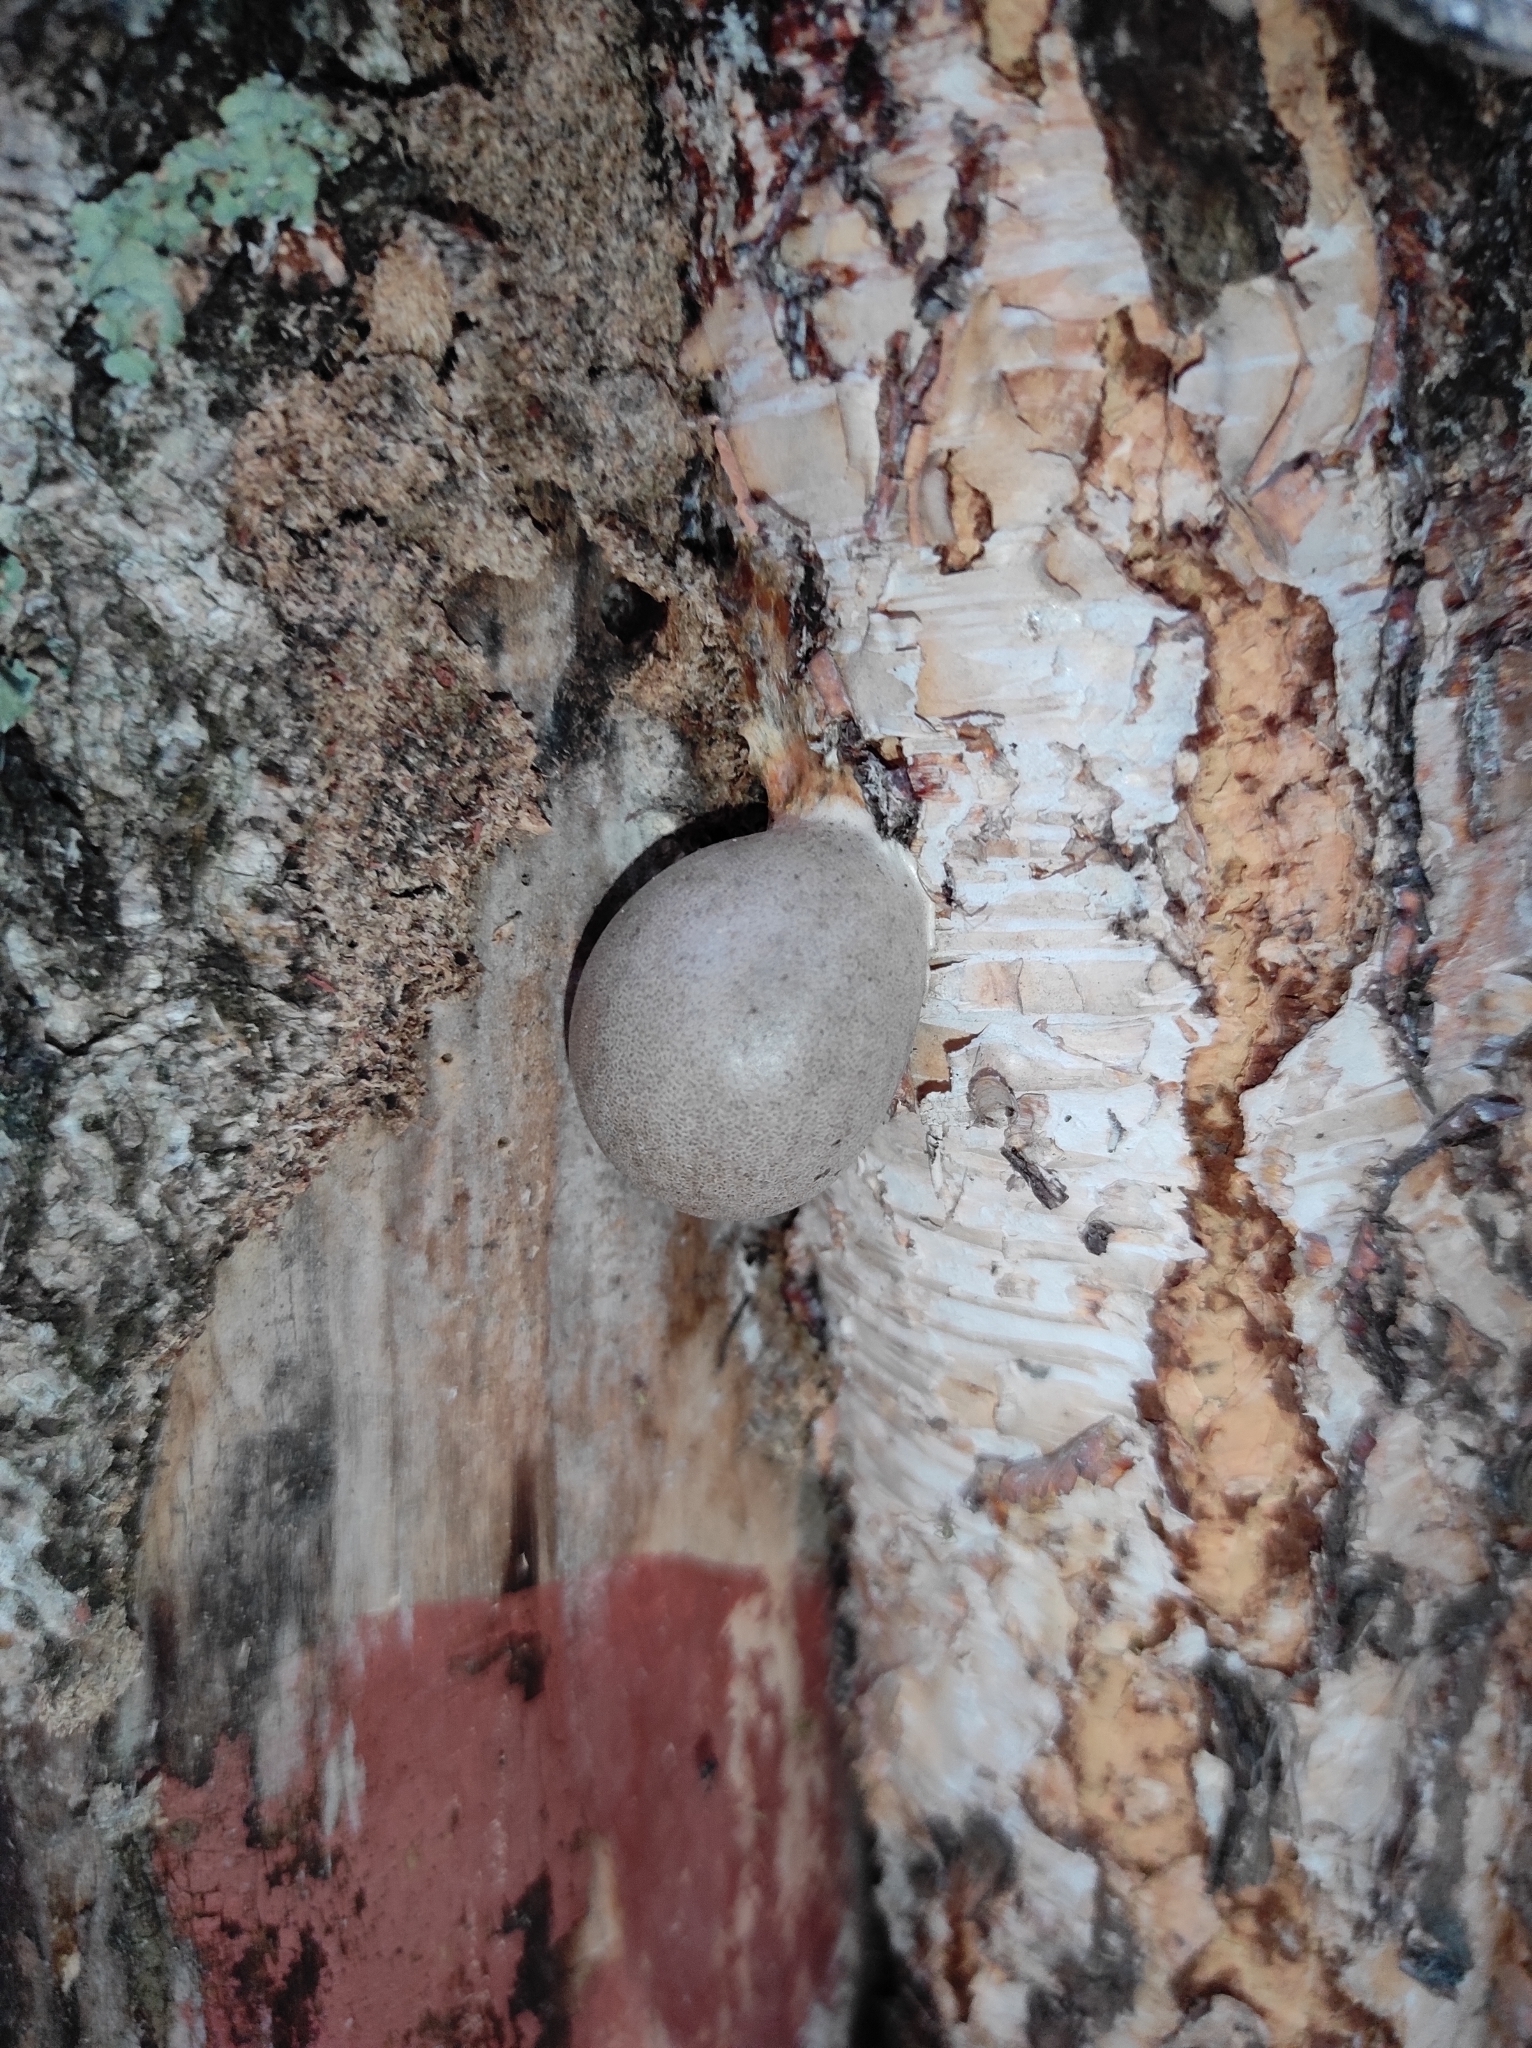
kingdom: Protozoa
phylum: Mycetozoa
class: Myxomycetes
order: Cribrariales
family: Tubiferaceae
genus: Lycogala
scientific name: Lycogala flavofuscum
